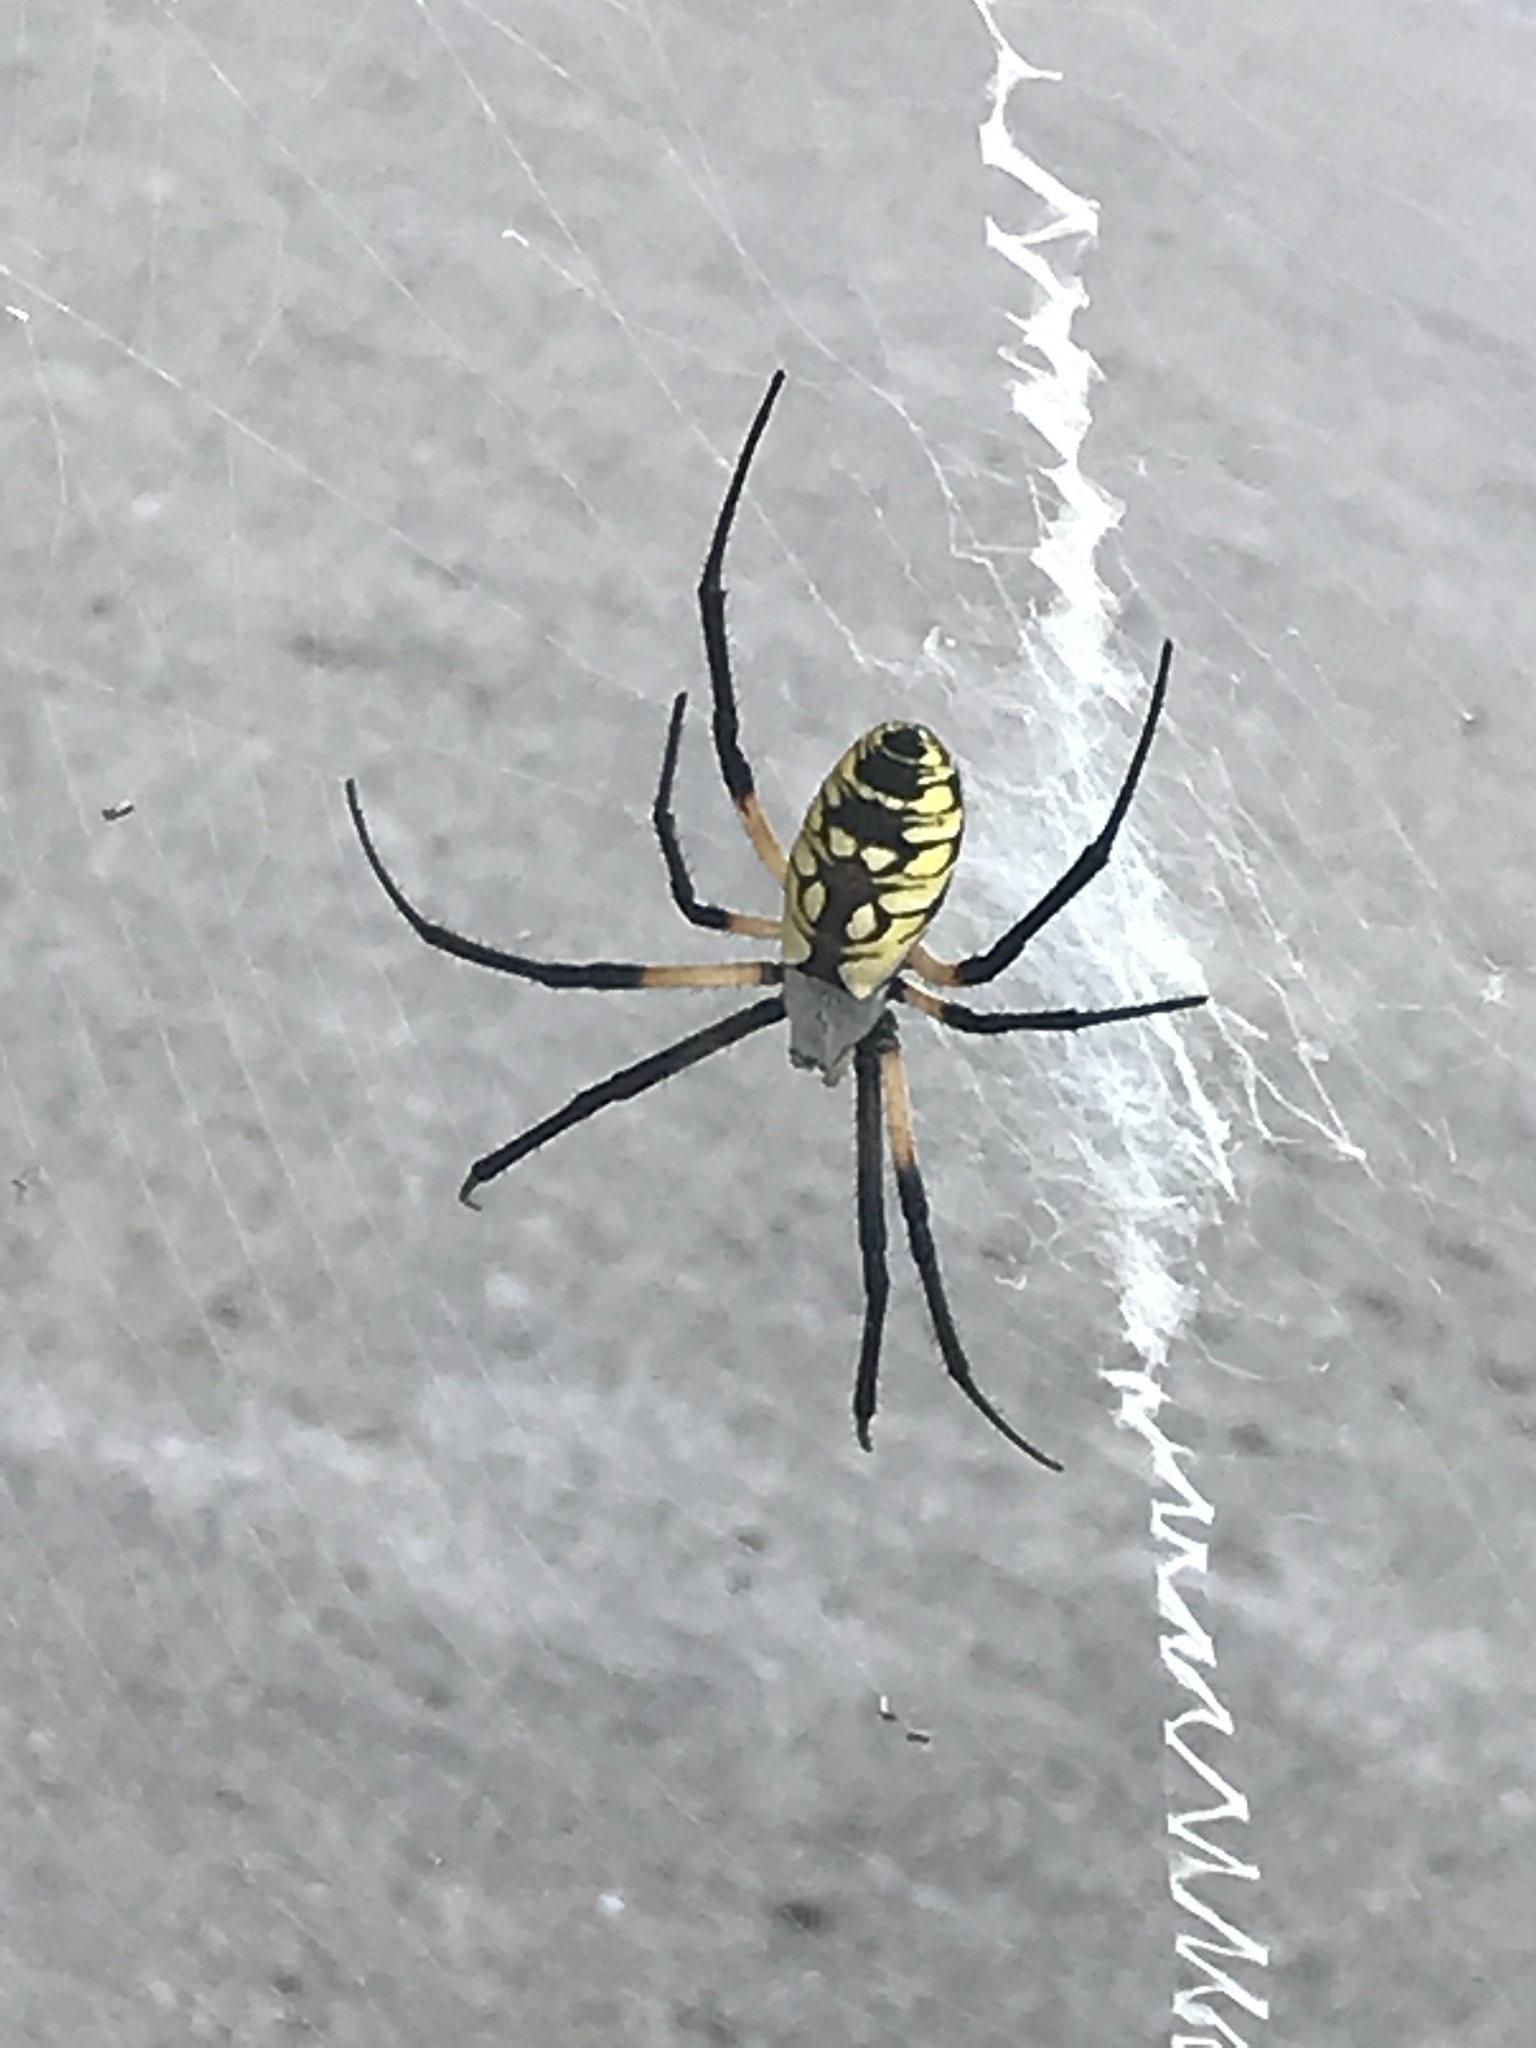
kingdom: Animalia
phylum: Arthropoda
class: Arachnida
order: Araneae
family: Araneidae
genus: Argiope
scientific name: Argiope aurantia
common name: Orb weavers
